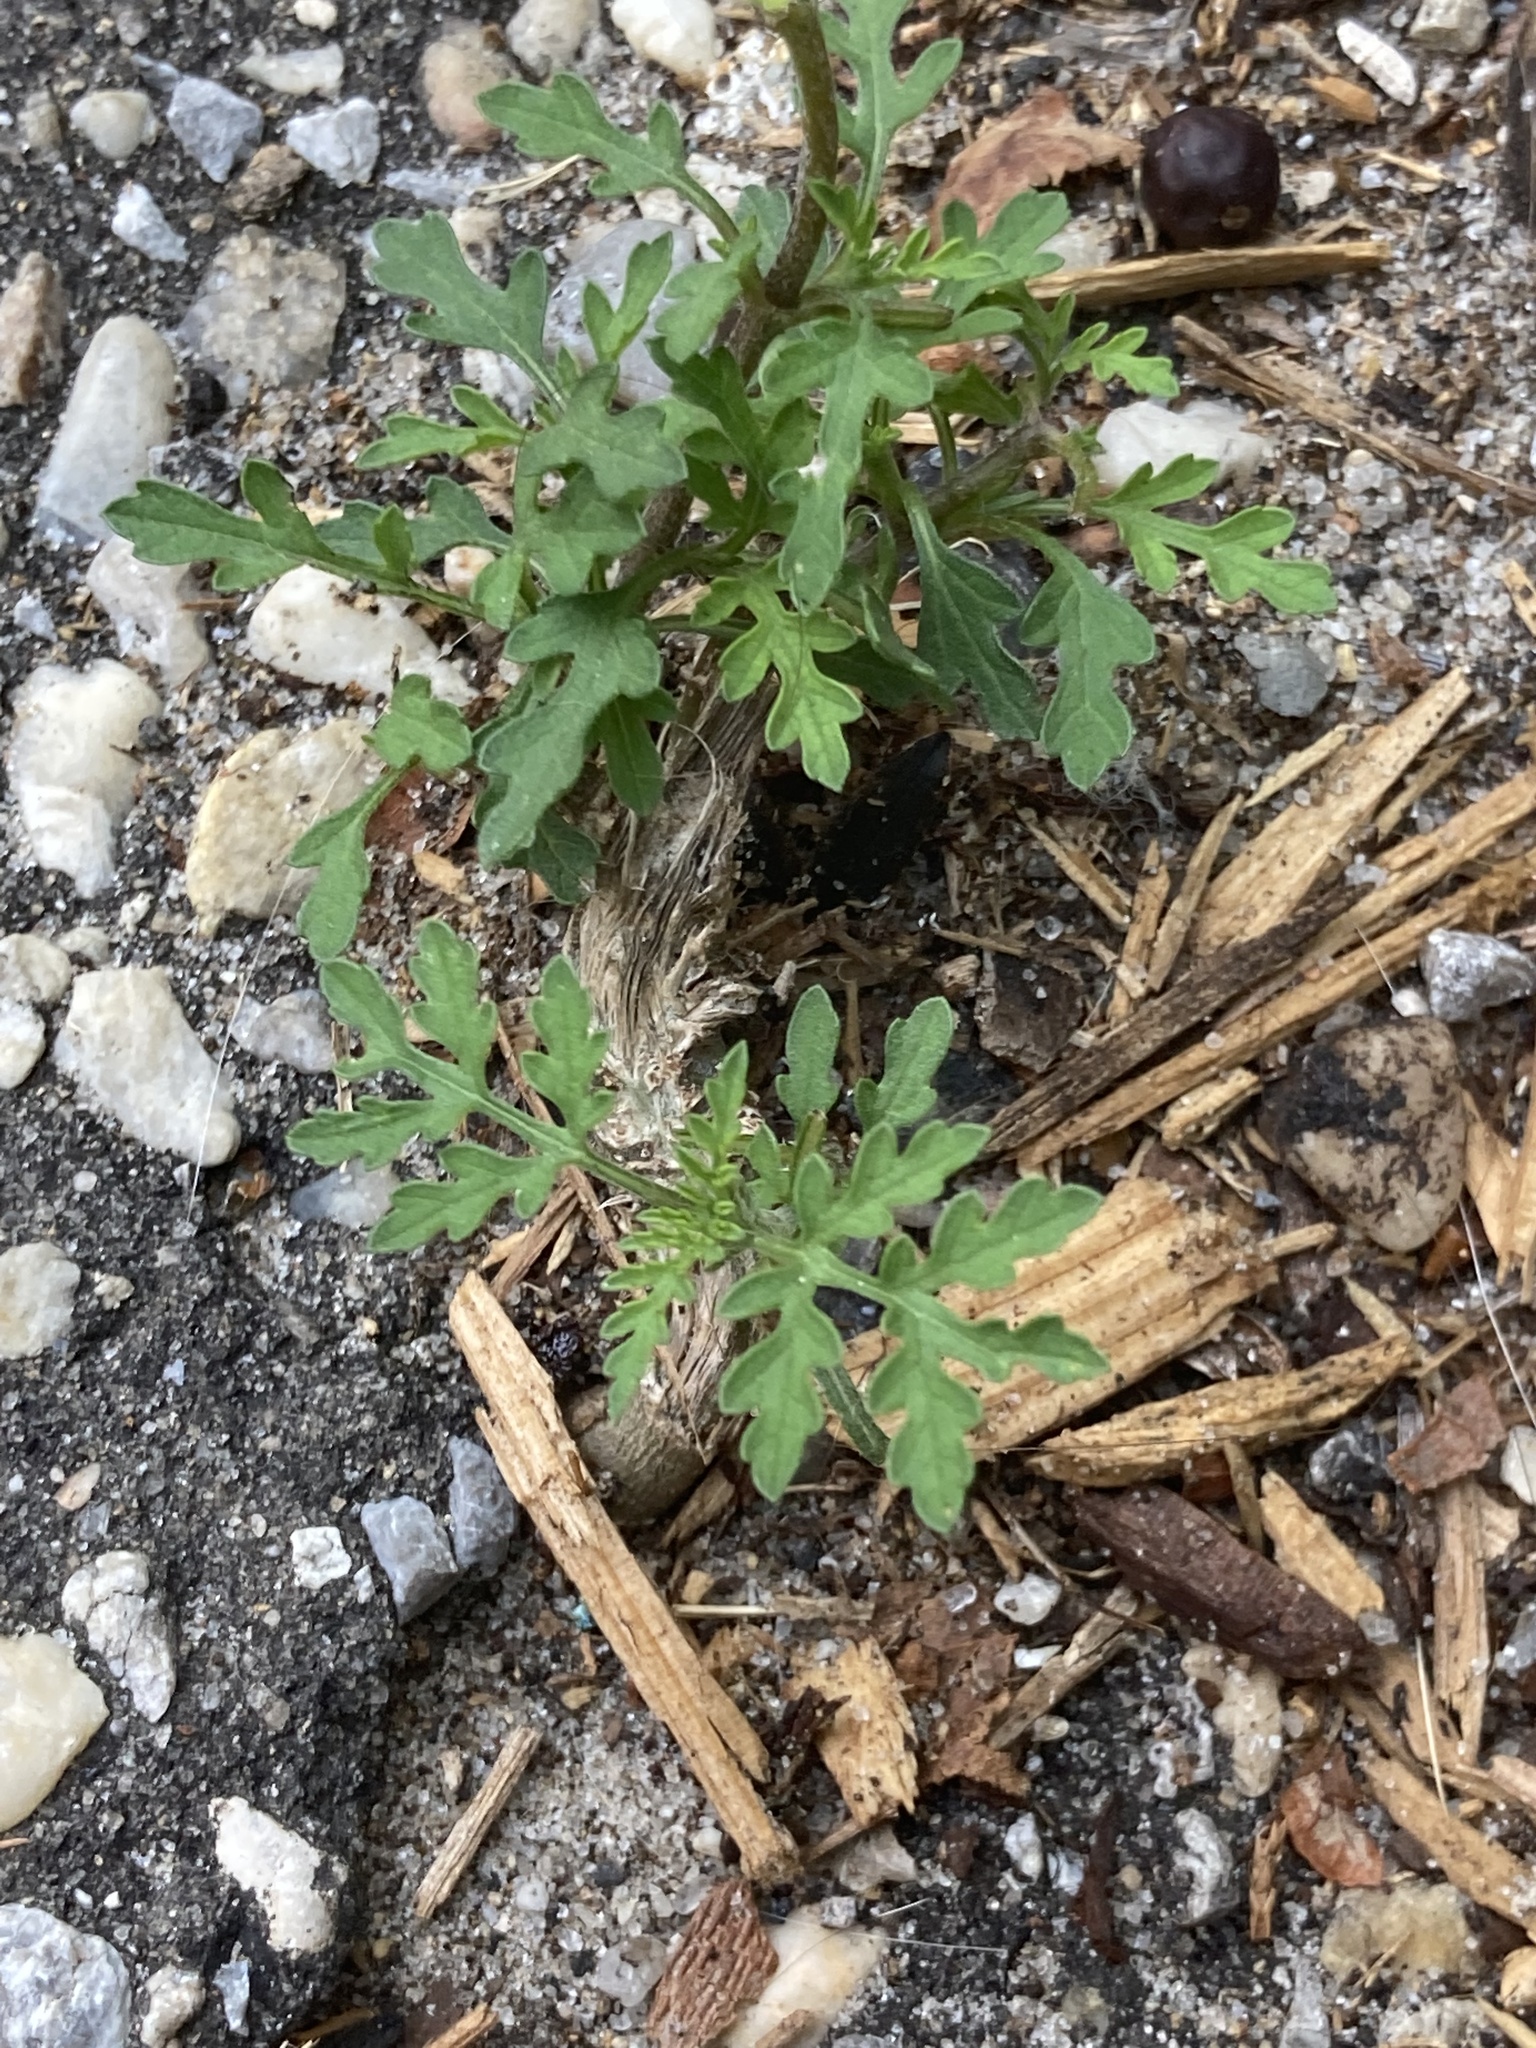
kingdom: Plantae
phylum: Tracheophyta
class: Magnoliopsida
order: Asterales
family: Asteraceae
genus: Ambrosia
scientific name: Ambrosia artemisiifolia
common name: Annual ragweed
